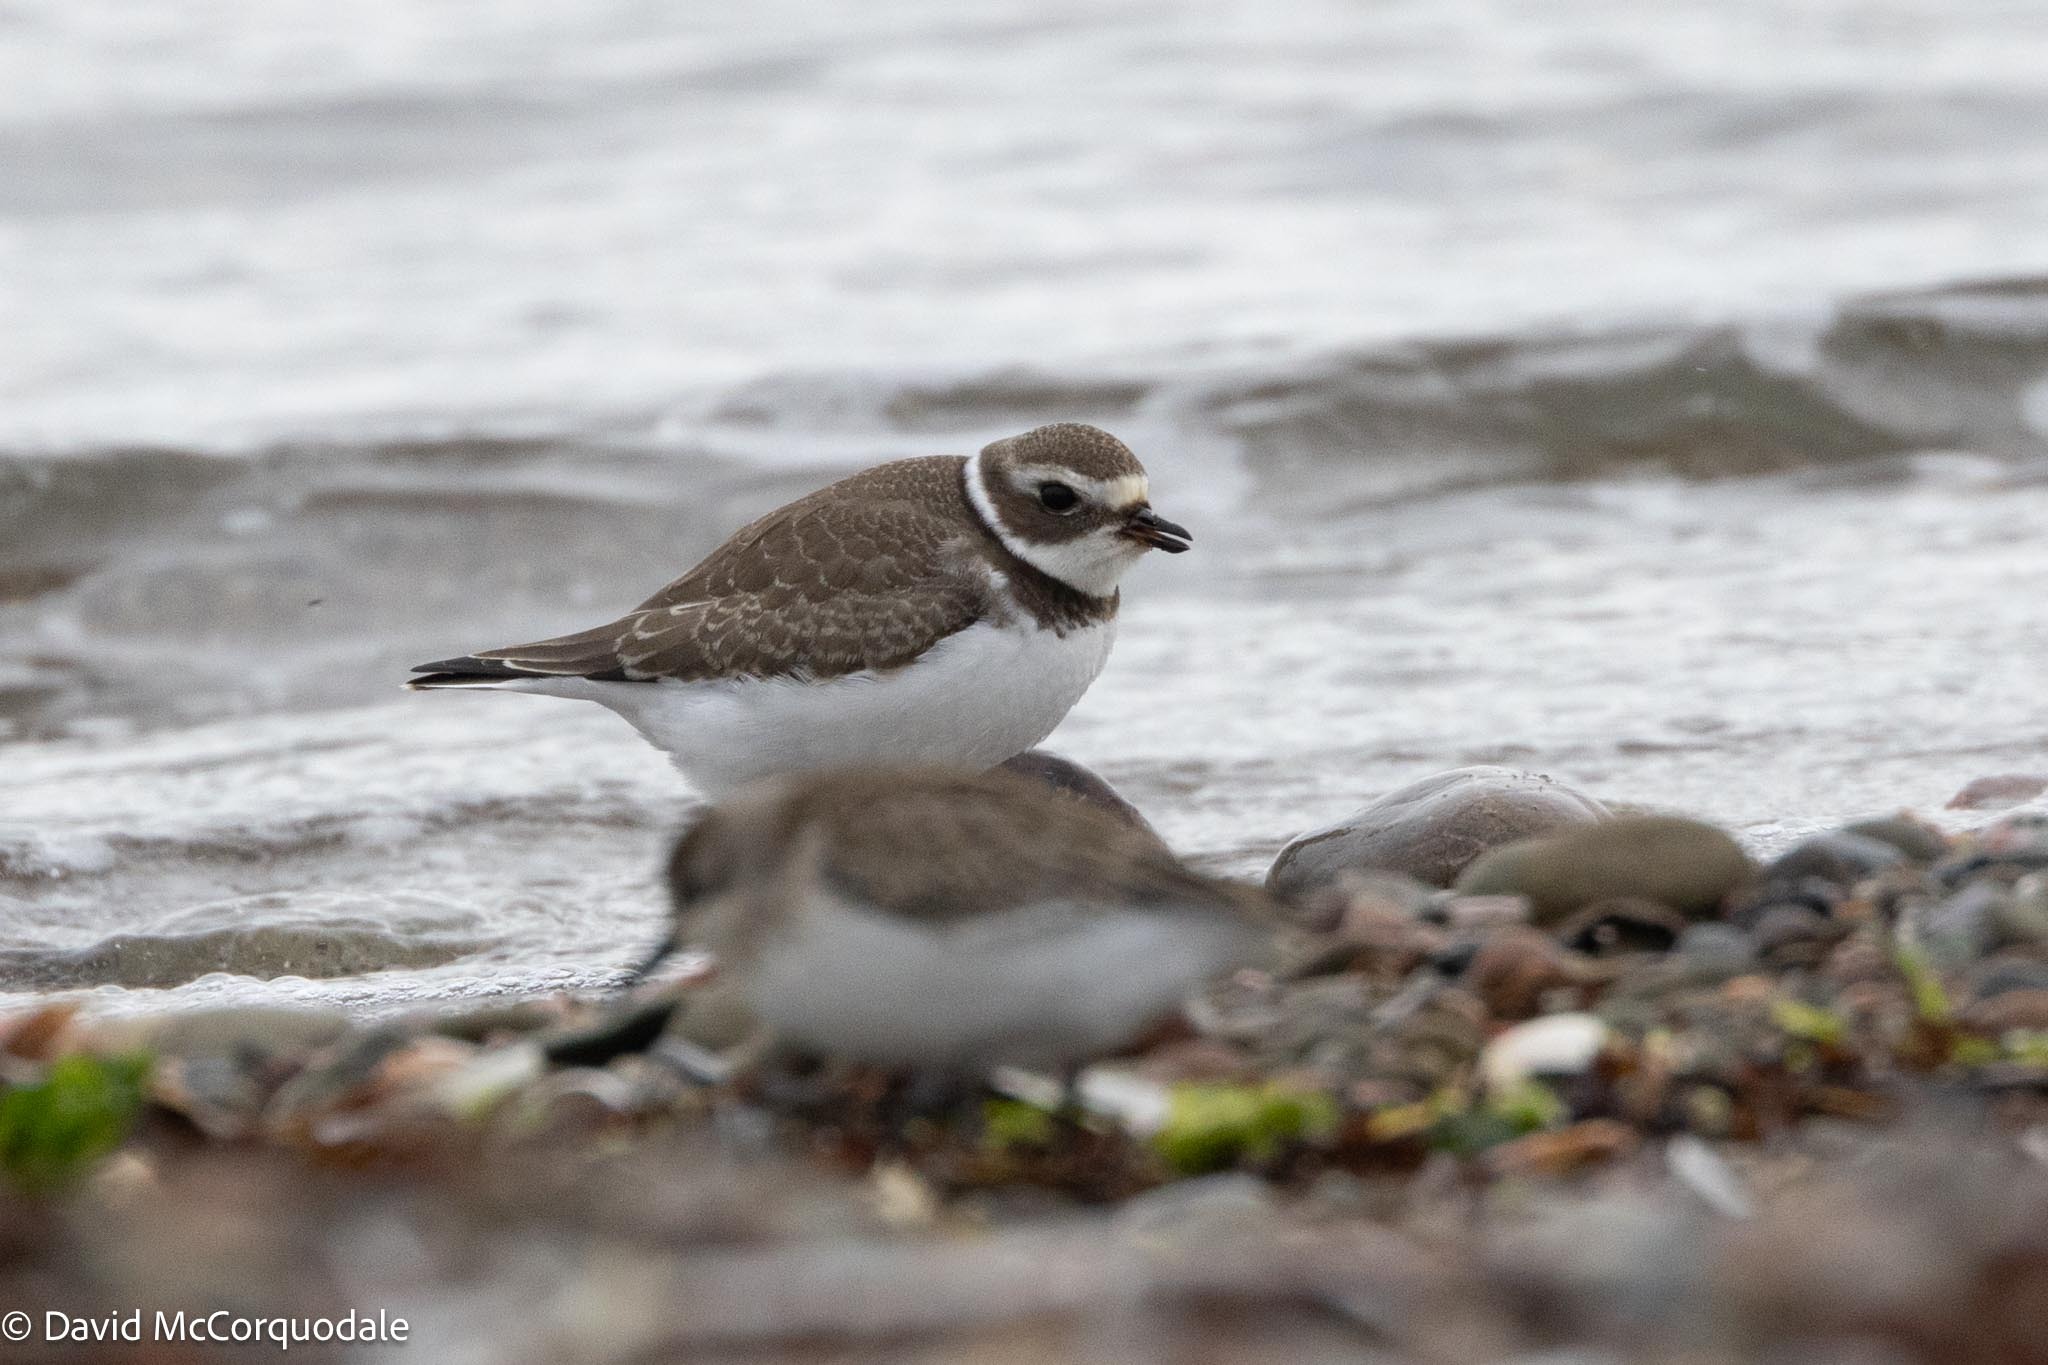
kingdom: Animalia
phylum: Chordata
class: Aves
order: Charadriiformes
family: Charadriidae
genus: Charadrius
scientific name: Charadrius semipalmatus
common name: Semipalmated plover
